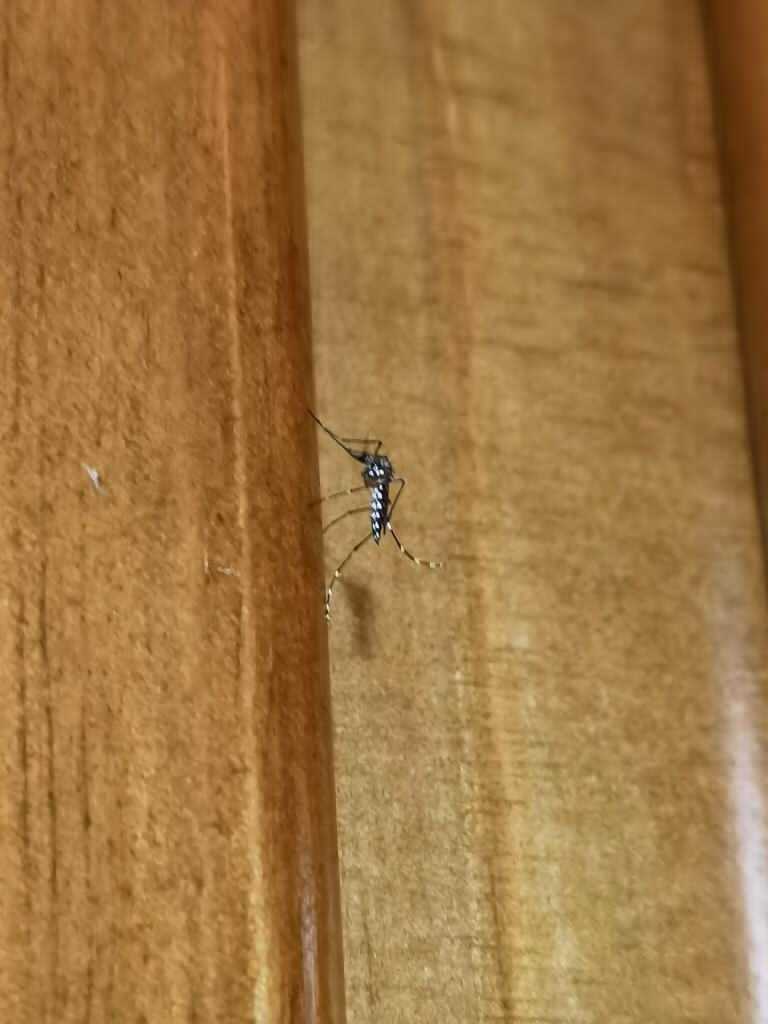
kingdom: Animalia
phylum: Arthropoda
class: Insecta
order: Diptera
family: Culicidae
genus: Aedes
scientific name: Aedes aegypti
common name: Yellow fever mosquito
